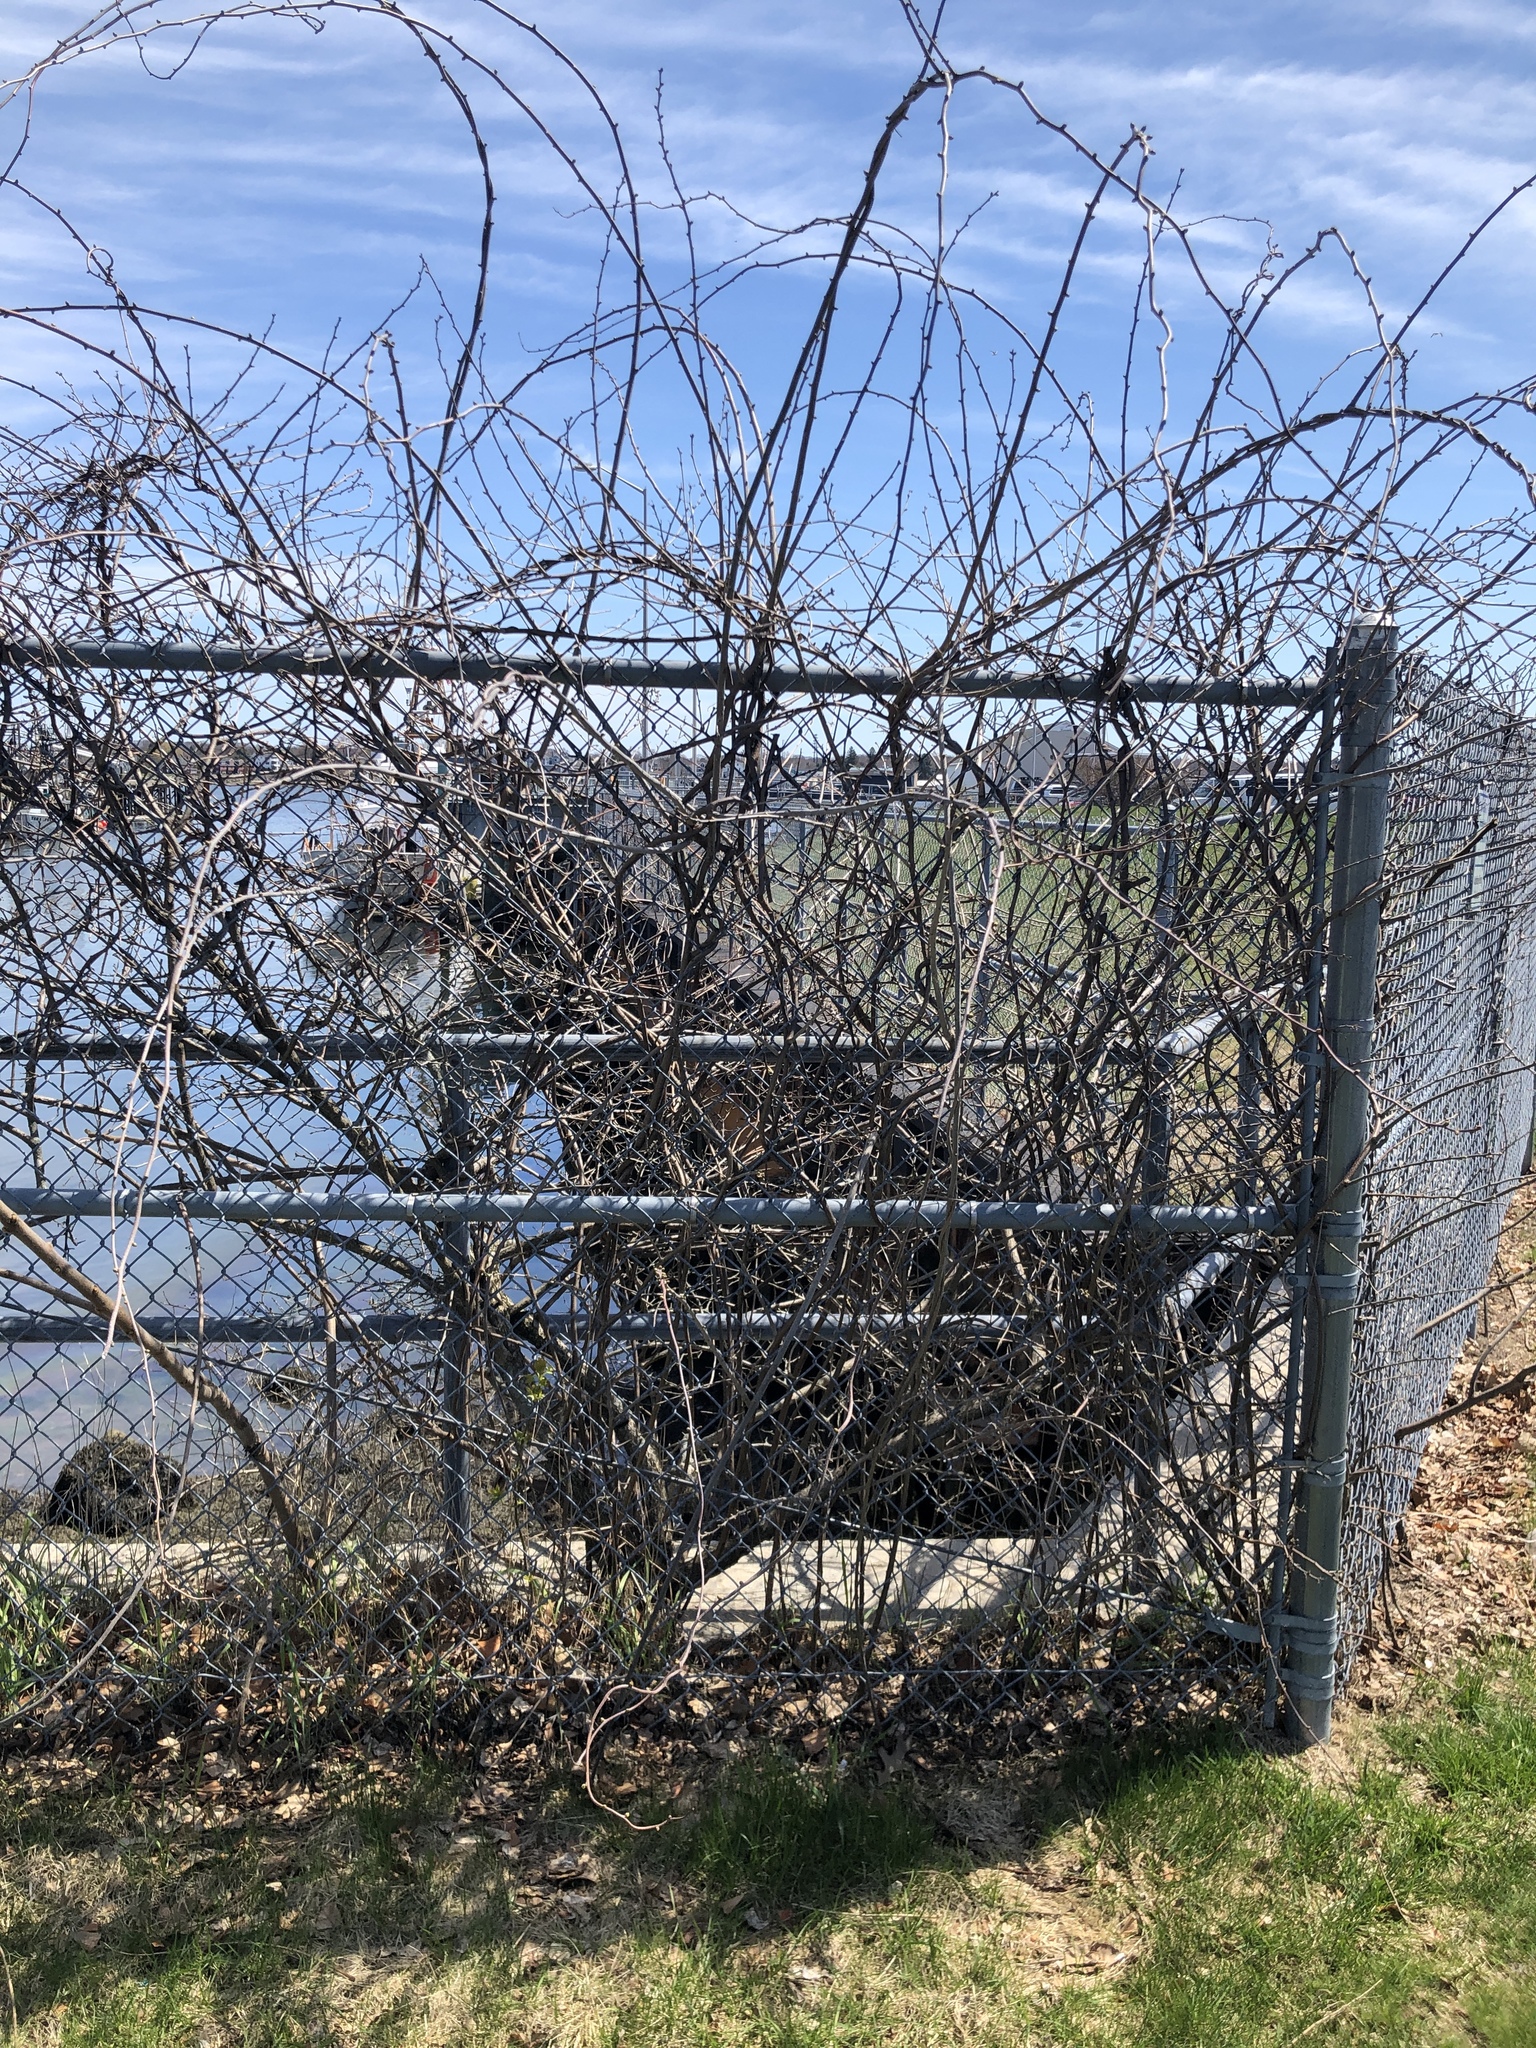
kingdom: Plantae
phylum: Tracheophyta
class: Magnoliopsida
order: Celastrales
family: Celastraceae
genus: Celastrus
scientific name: Celastrus orbiculatus
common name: Oriental bittersweet
